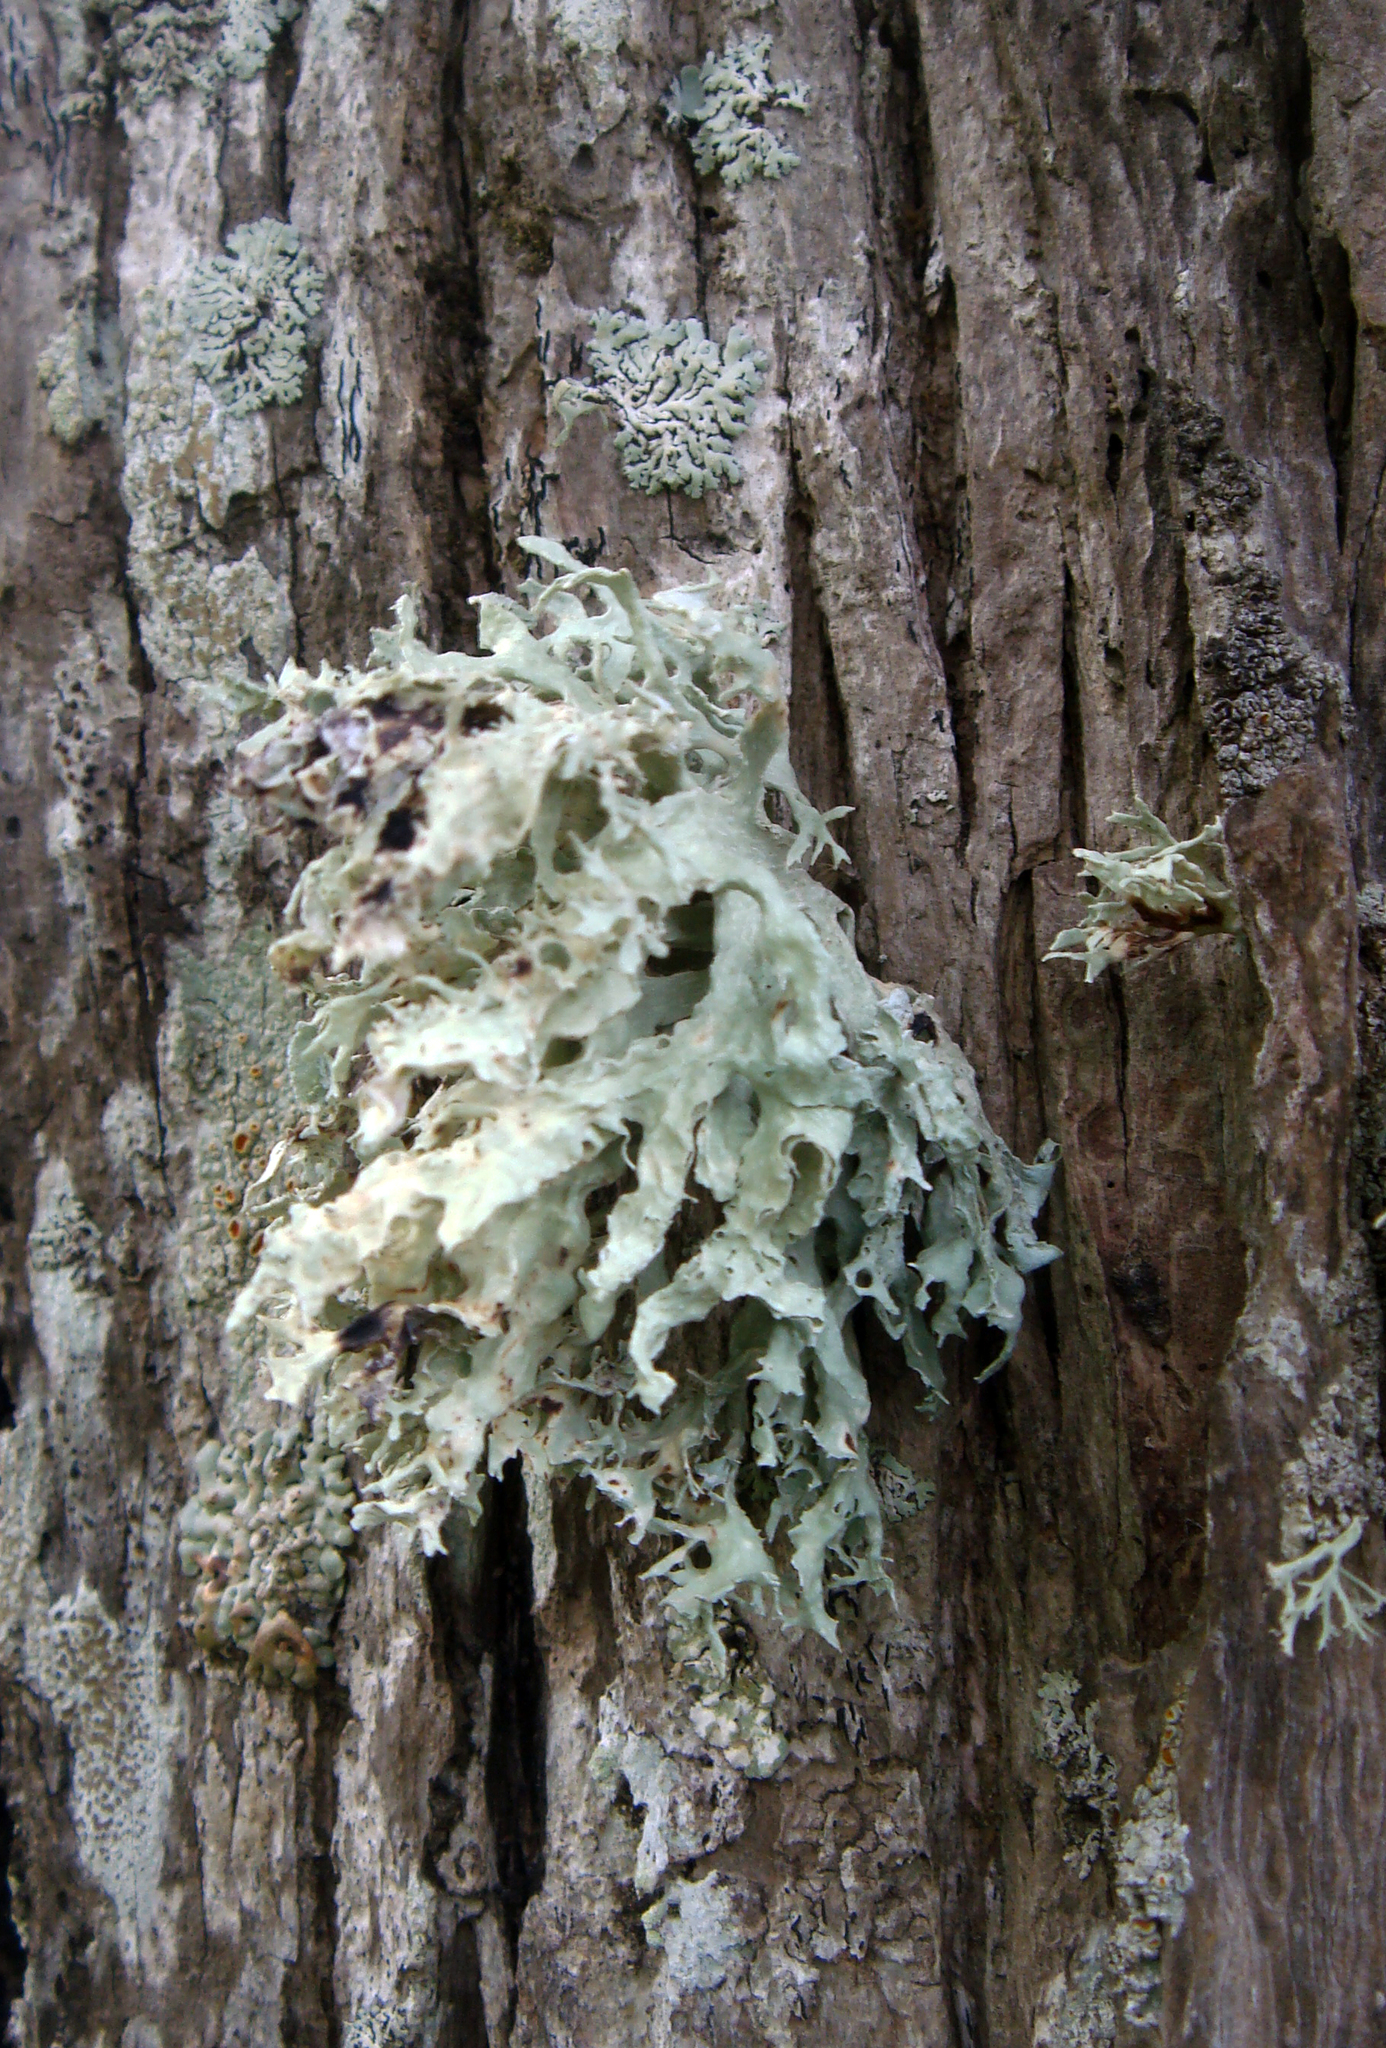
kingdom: Fungi
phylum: Ascomycota
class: Lecanoromycetes
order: Lecanorales
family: Ramalinaceae
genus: Ramalina
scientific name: Ramalina canariensis
